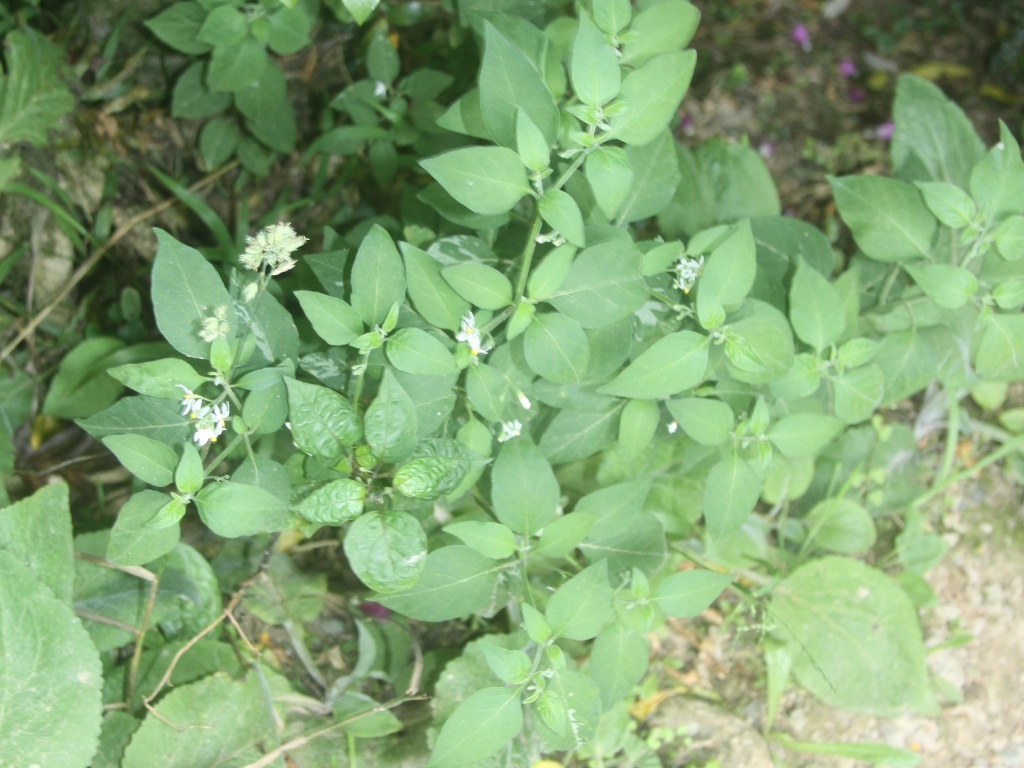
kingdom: Plantae
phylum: Tracheophyta
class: Magnoliopsida
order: Solanales
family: Solanaceae
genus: Solanum
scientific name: Solanum chenopodioides
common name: Tall nightshade
